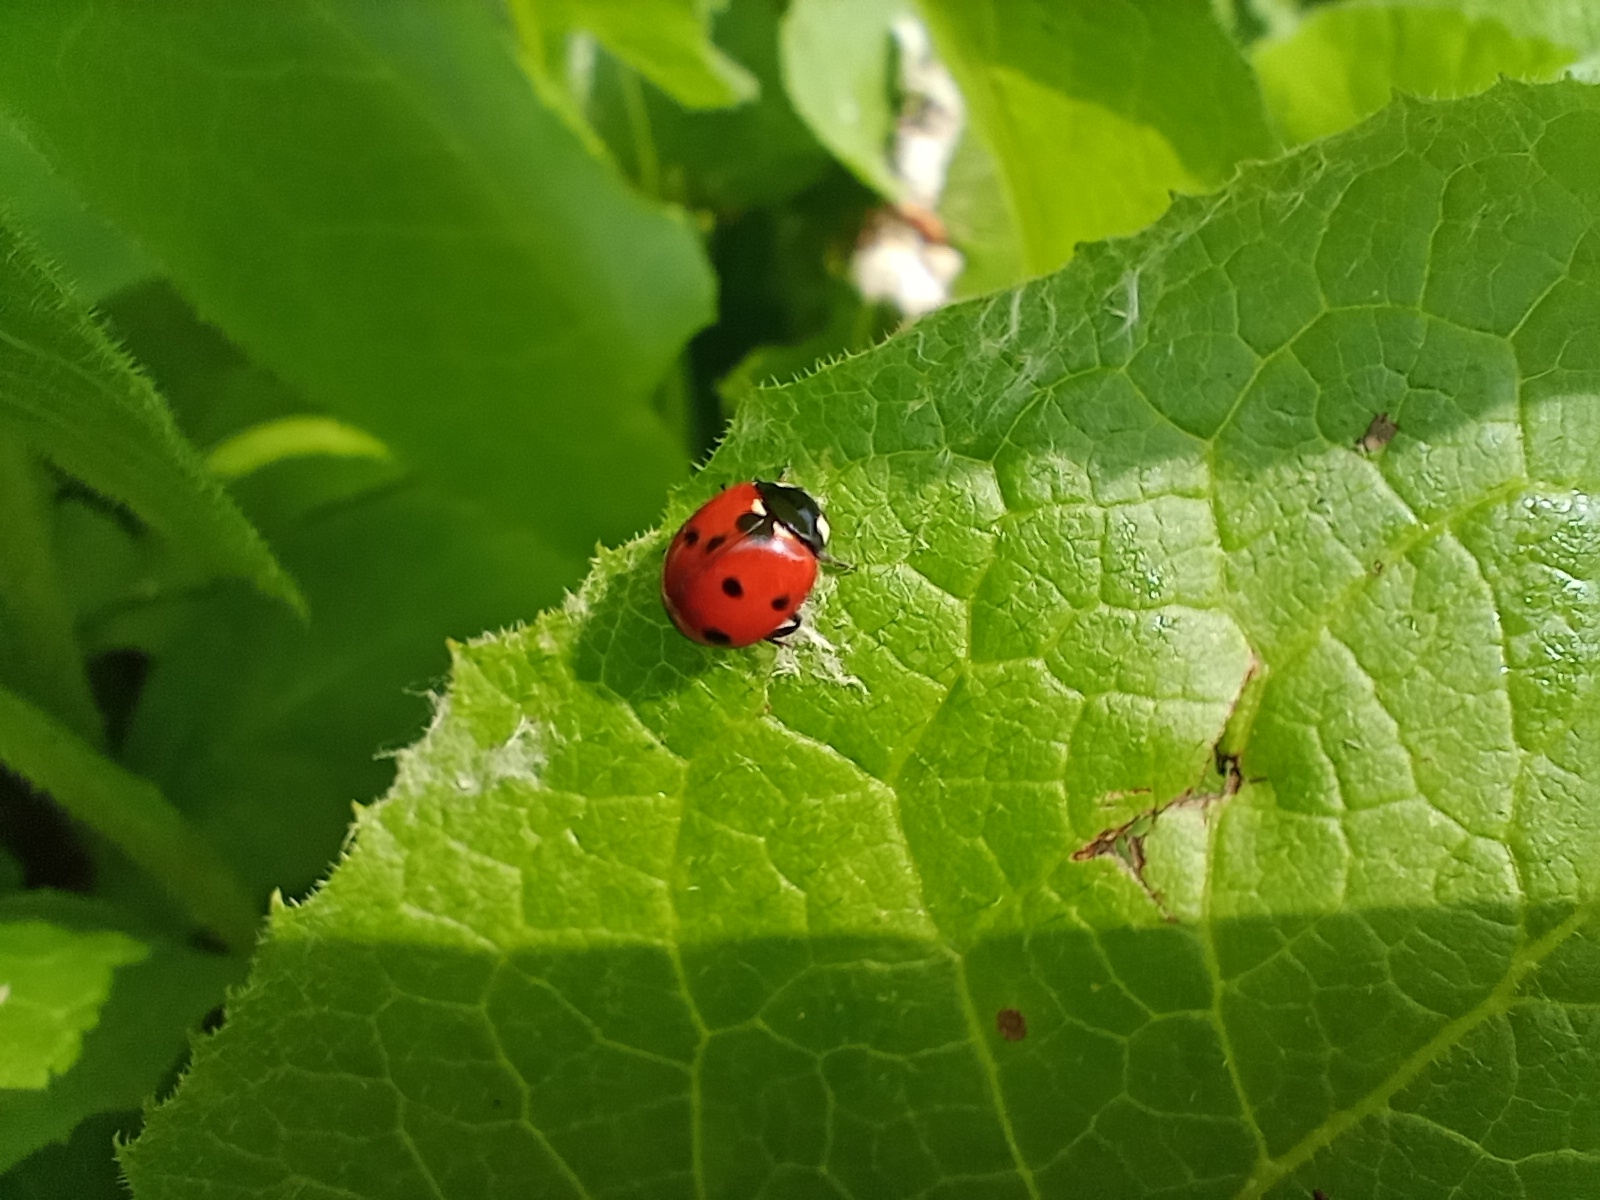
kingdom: Animalia
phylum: Arthropoda
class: Insecta
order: Coleoptera
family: Coccinellidae
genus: Coccinella
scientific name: Coccinella septempunctata
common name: Sevenspotted lady beetle
